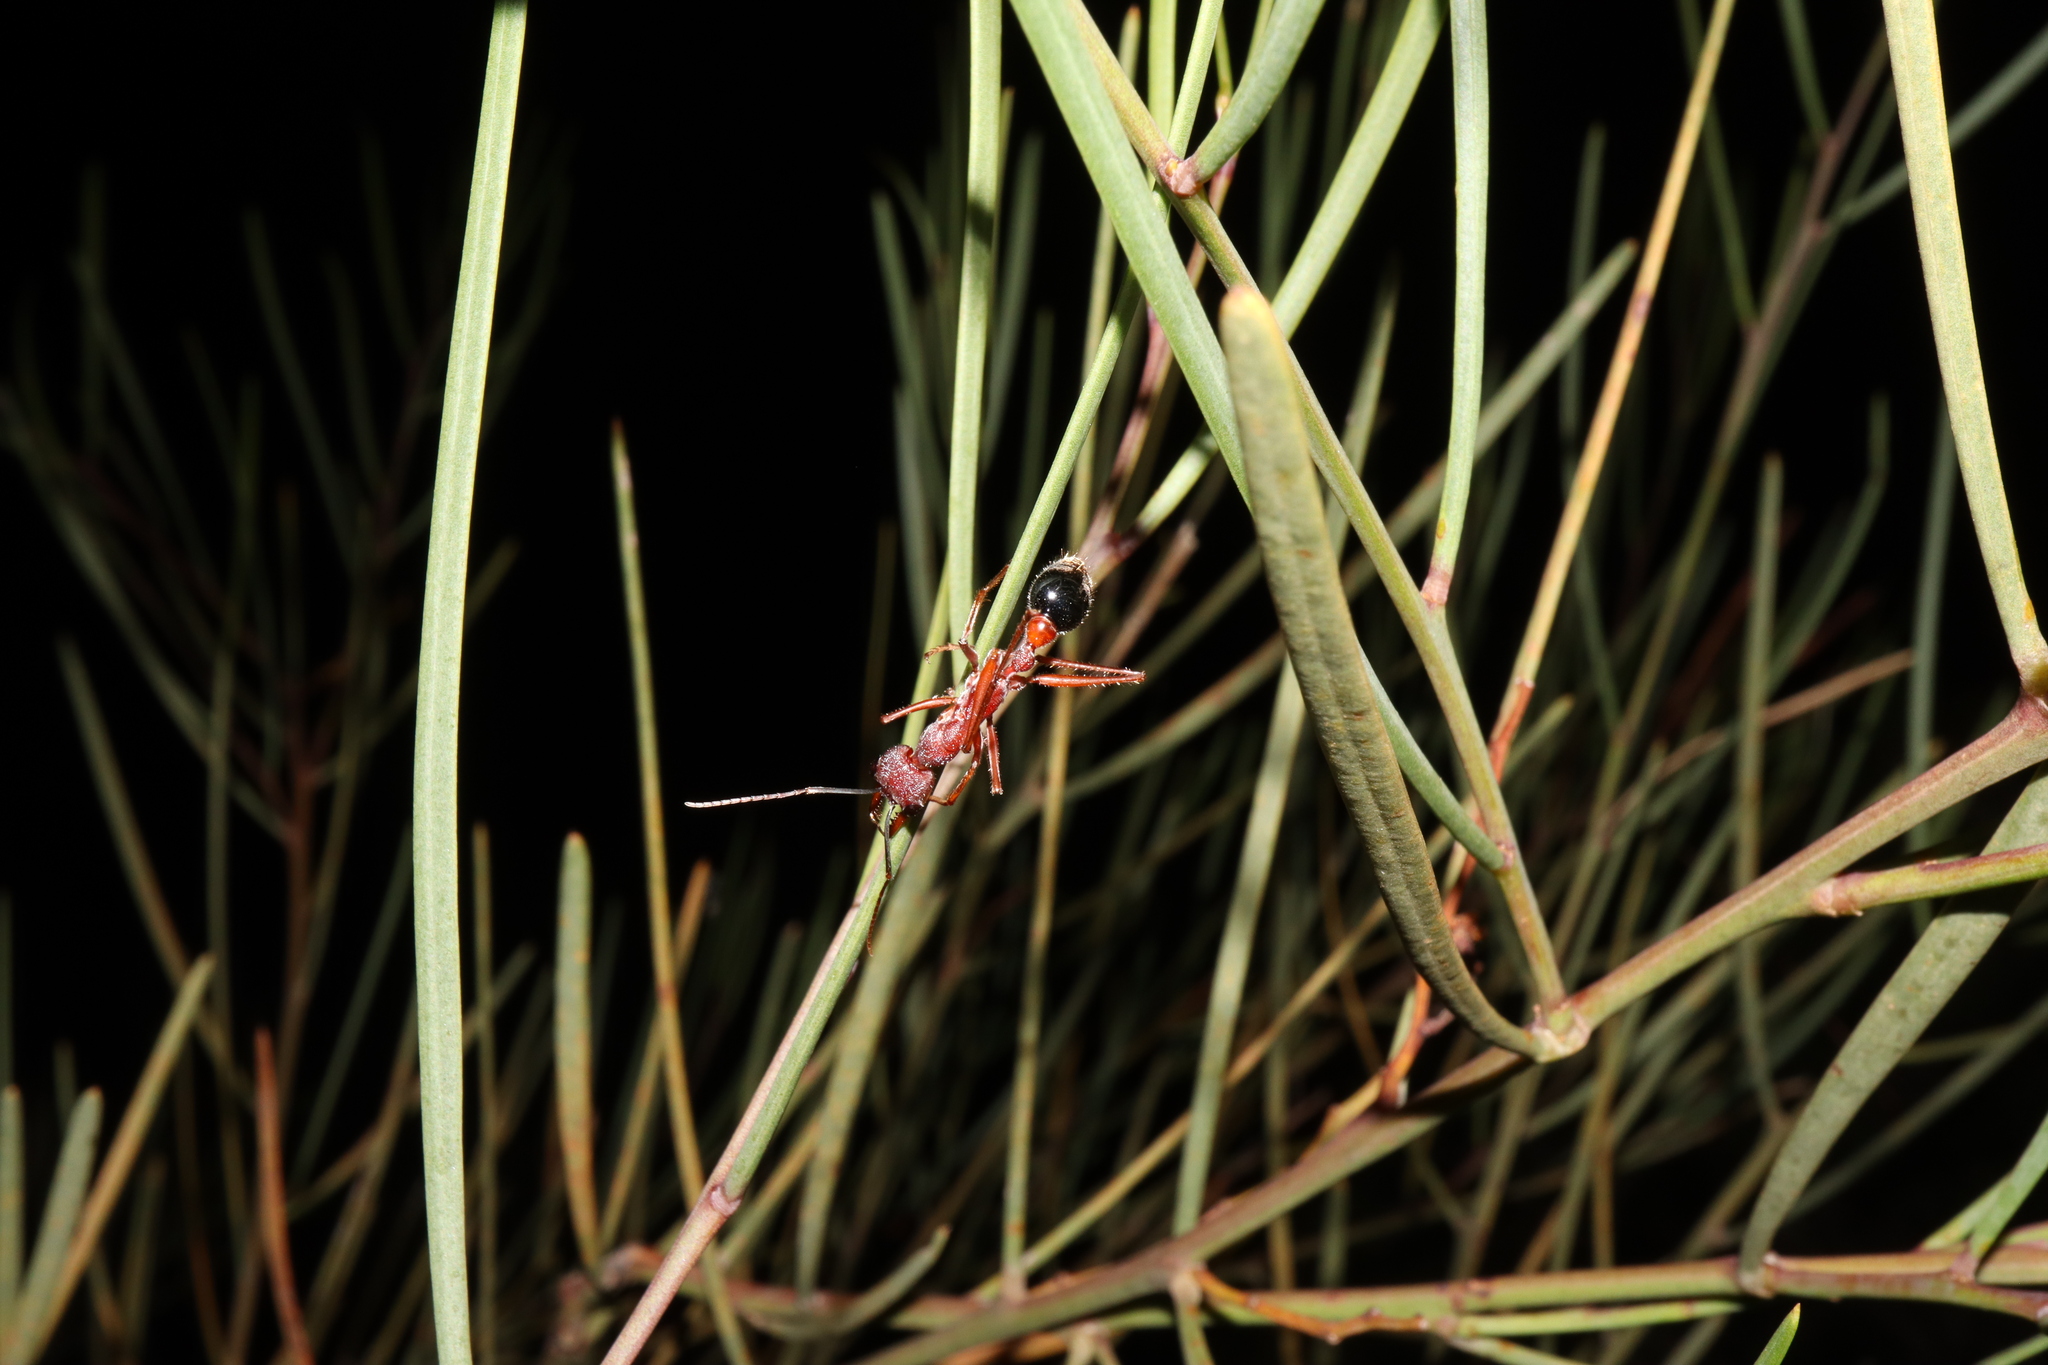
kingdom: Animalia
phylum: Arthropoda
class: Insecta
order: Hymenoptera
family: Formicidae
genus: Myrmecia
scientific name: Myrmecia analis
